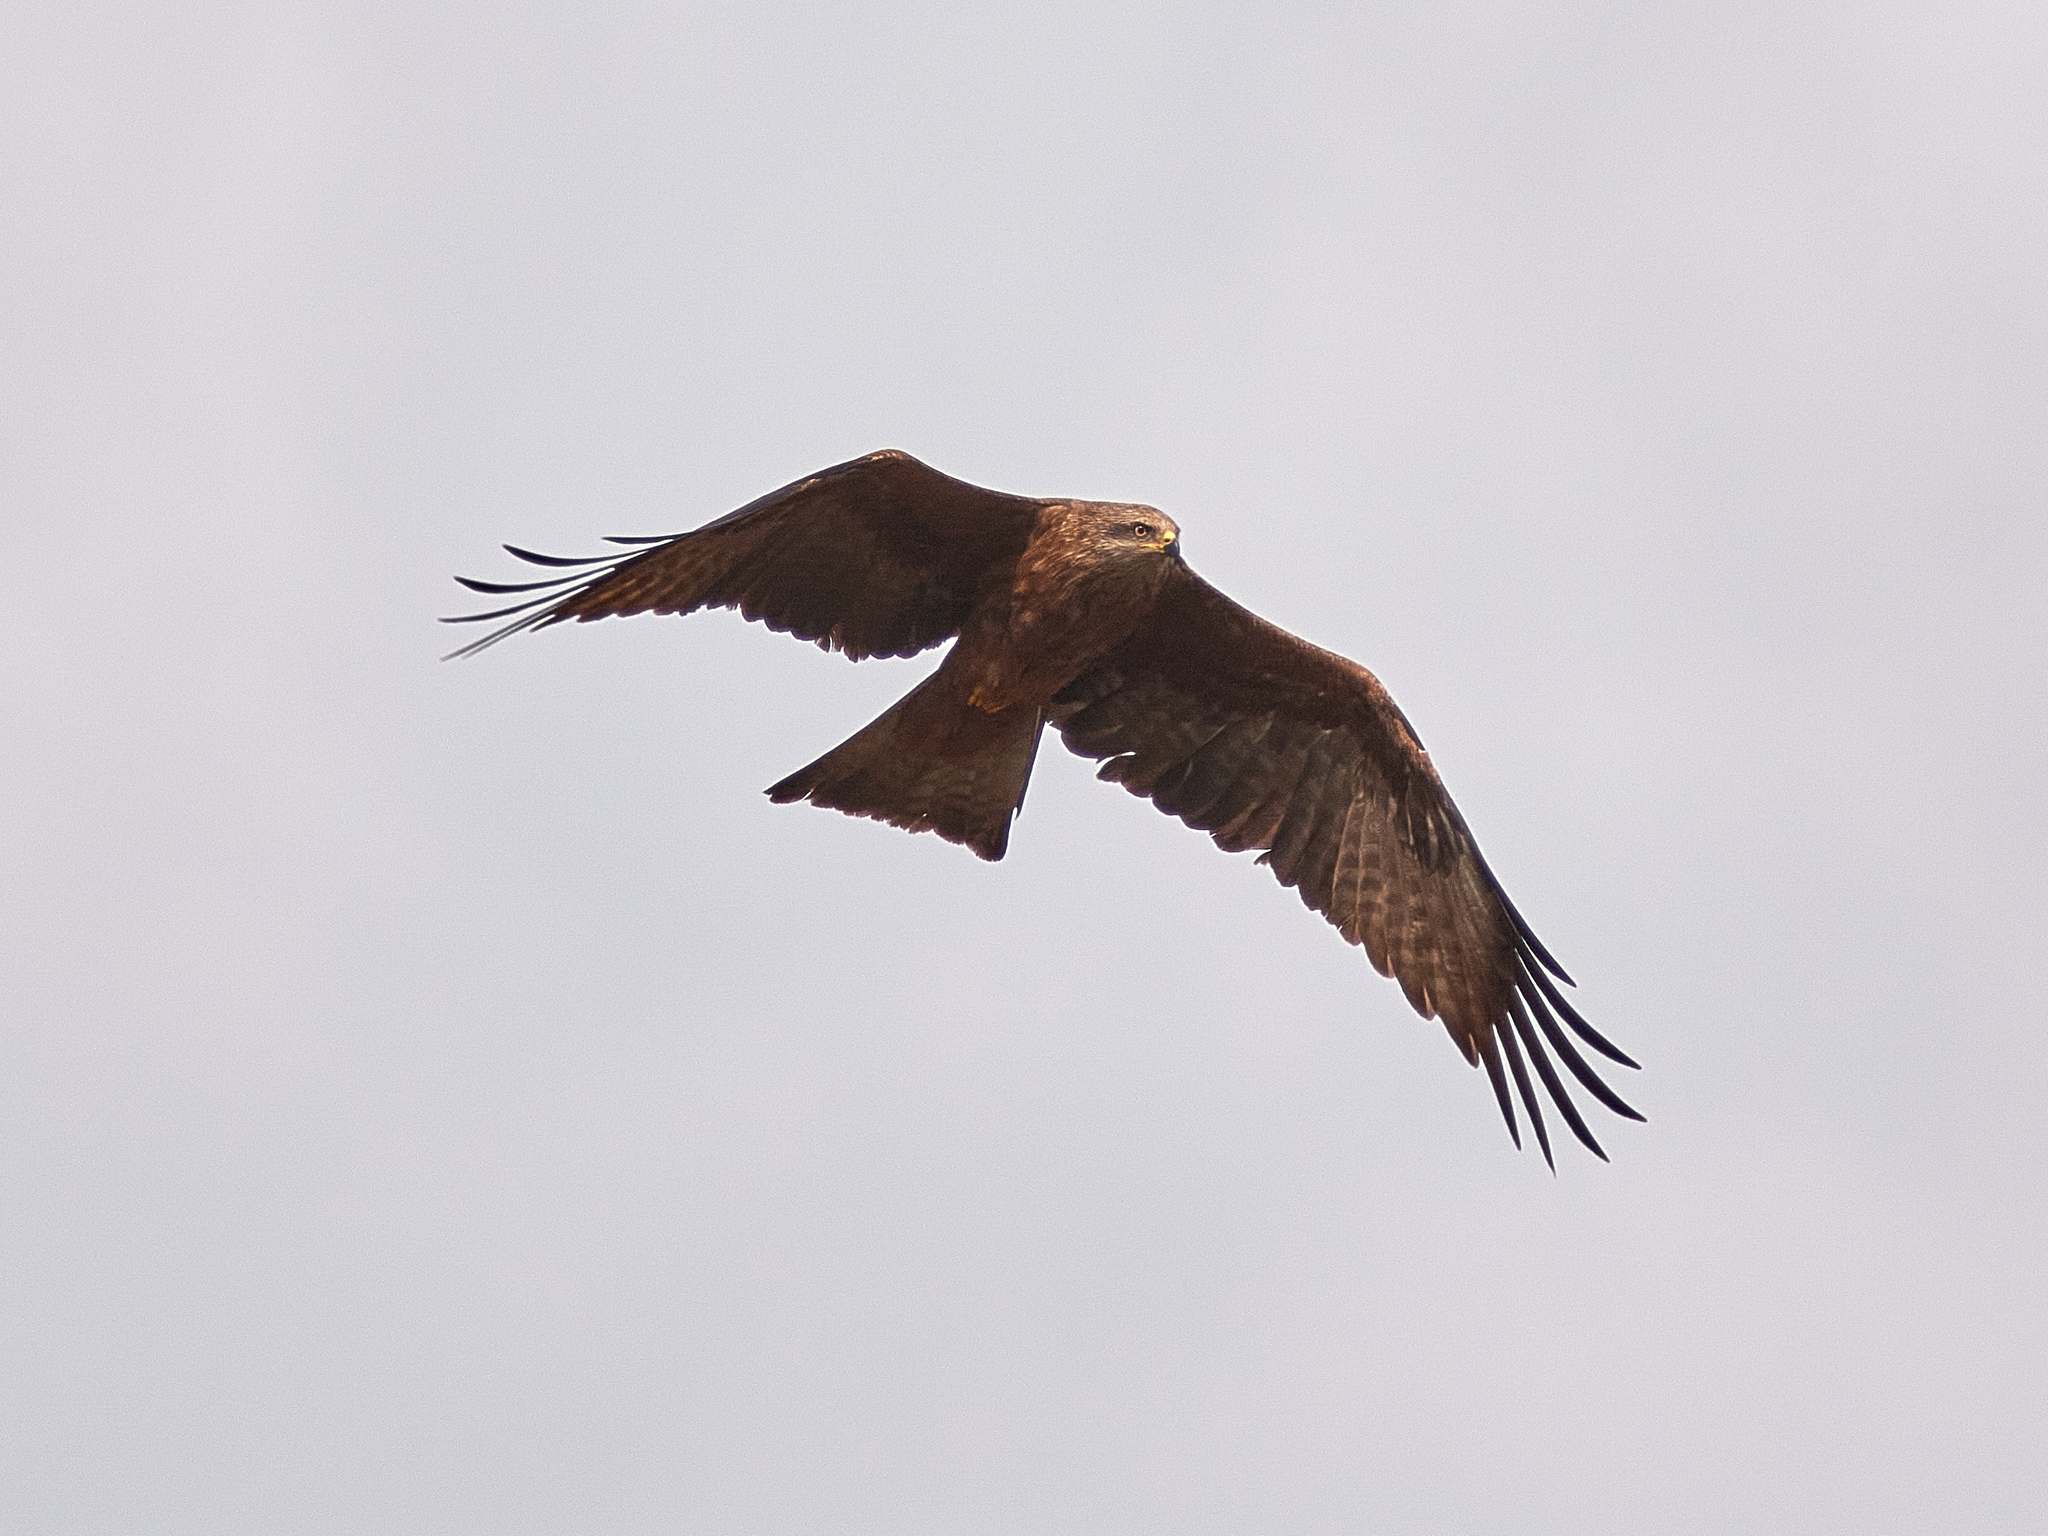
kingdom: Animalia
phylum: Chordata
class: Aves
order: Accipitriformes
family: Accipitridae
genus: Milvus
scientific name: Milvus migrans
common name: Black kite
